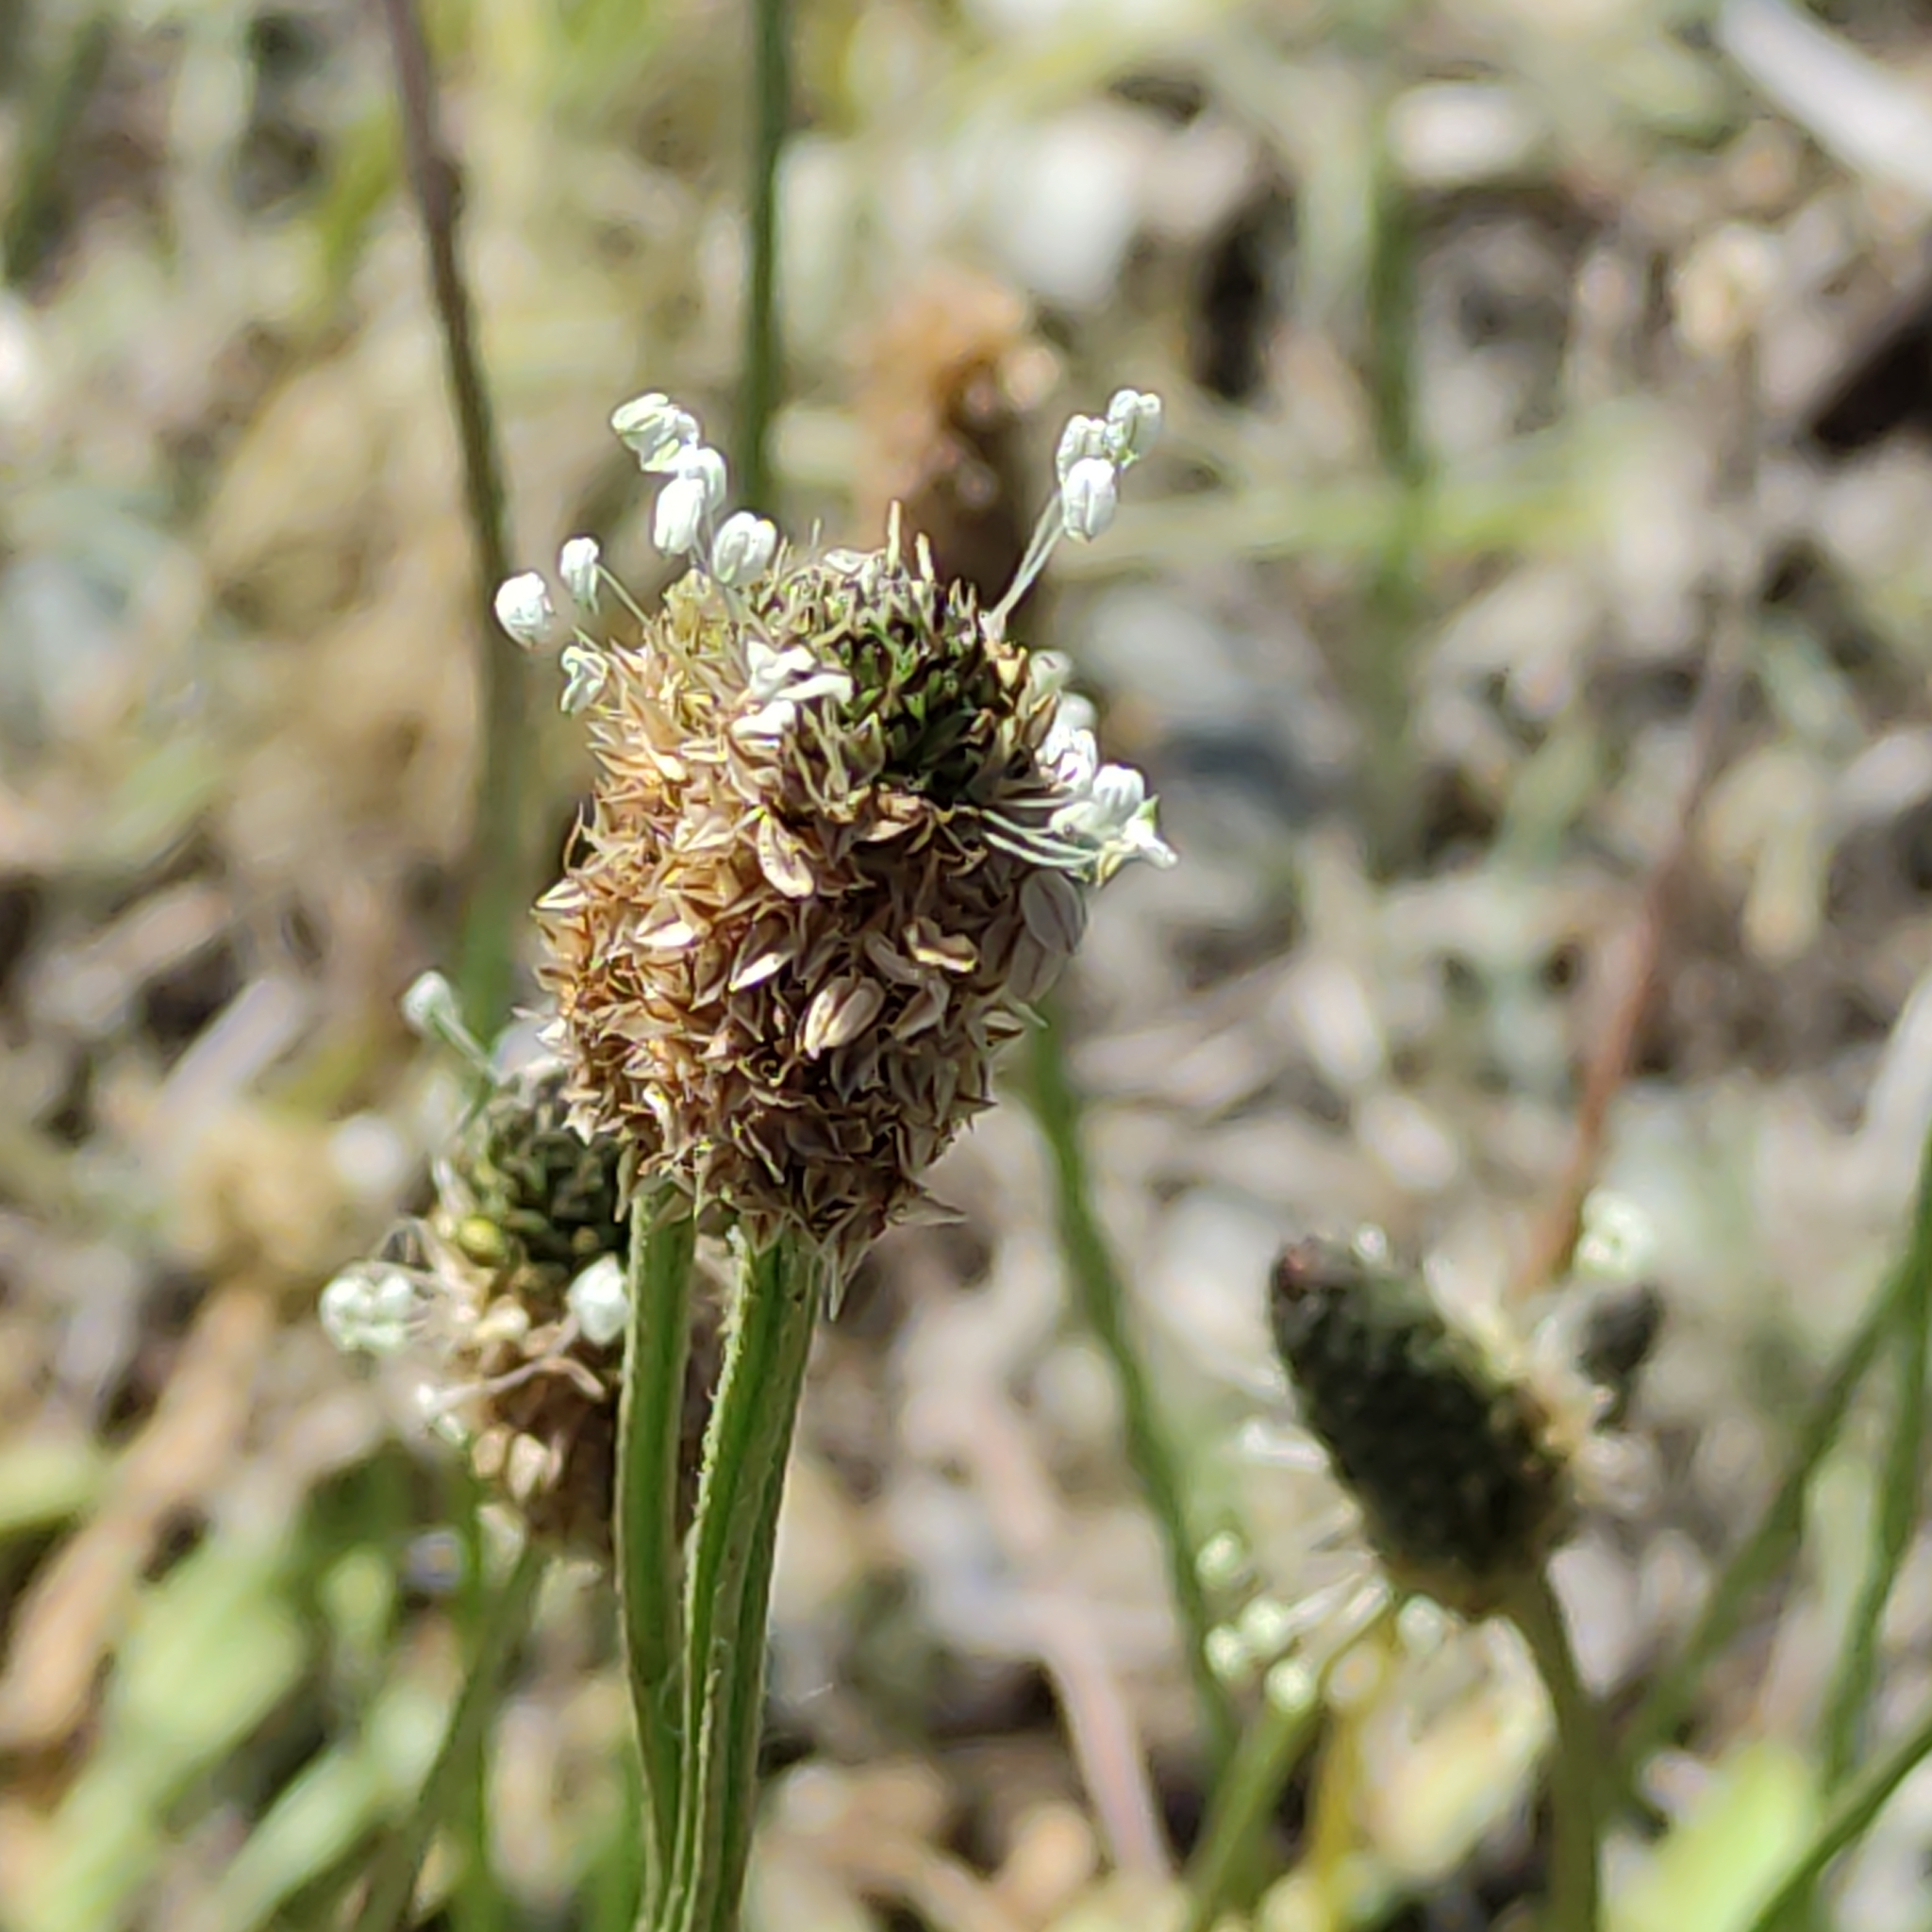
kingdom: Plantae
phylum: Tracheophyta
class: Magnoliopsida
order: Lamiales
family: Plantaginaceae
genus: Plantago
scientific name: Plantago lanceolata
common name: Ribwort plantain
